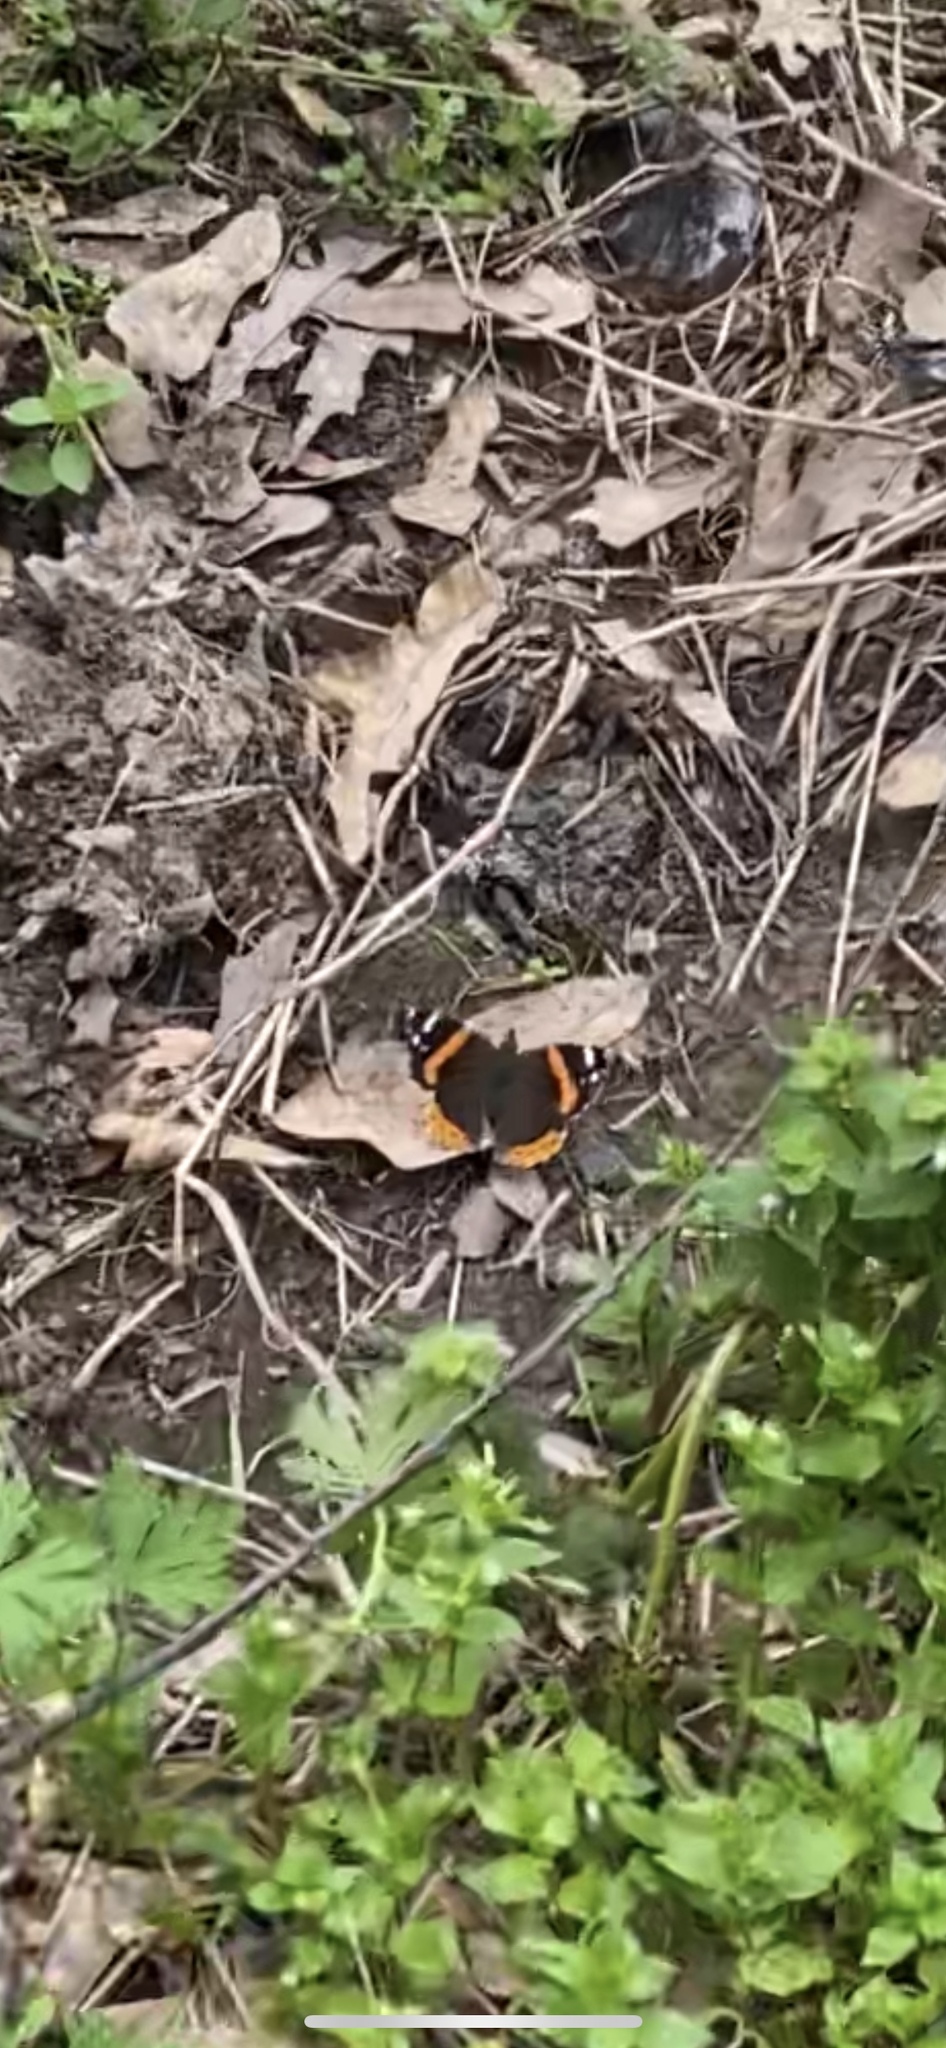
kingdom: Animalia
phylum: Arthropoda
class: Insecta
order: Lepidoptera
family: Nymphalidae
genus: Vanessa
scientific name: Vanessa atalanta
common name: Red admiral
